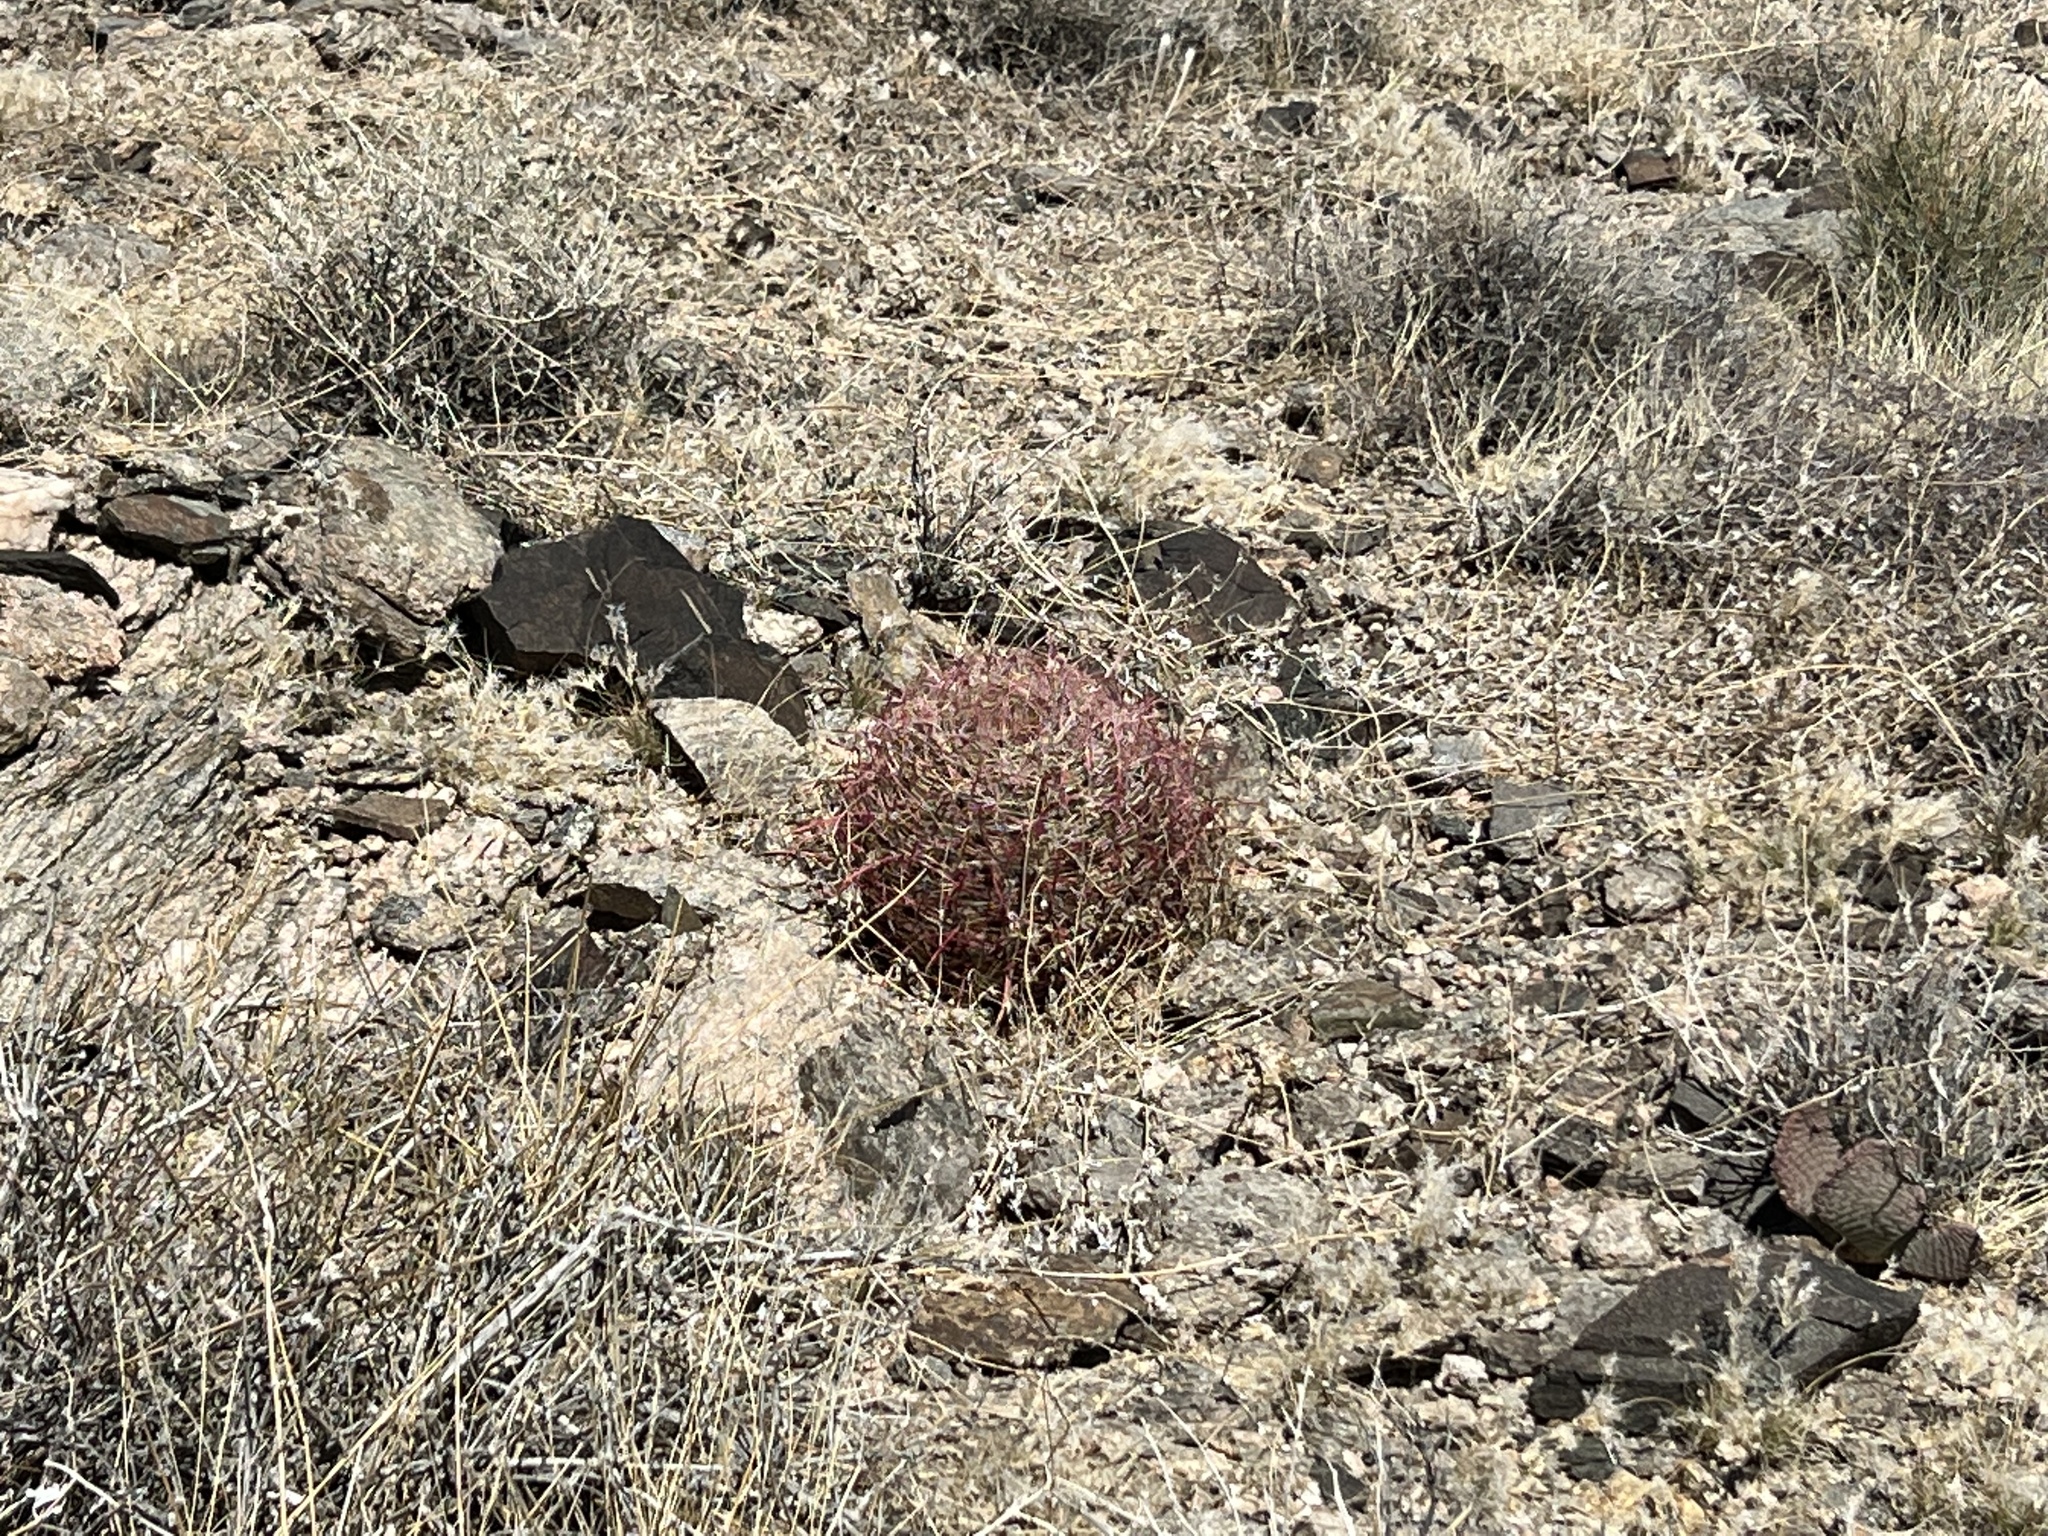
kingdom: Plantae
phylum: Tracheophyta
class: Magnoliopsida
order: Caryophyllales
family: Cactaceae
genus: Ferocactus
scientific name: Ferocactus cylindraceus
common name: California barrel cactus
